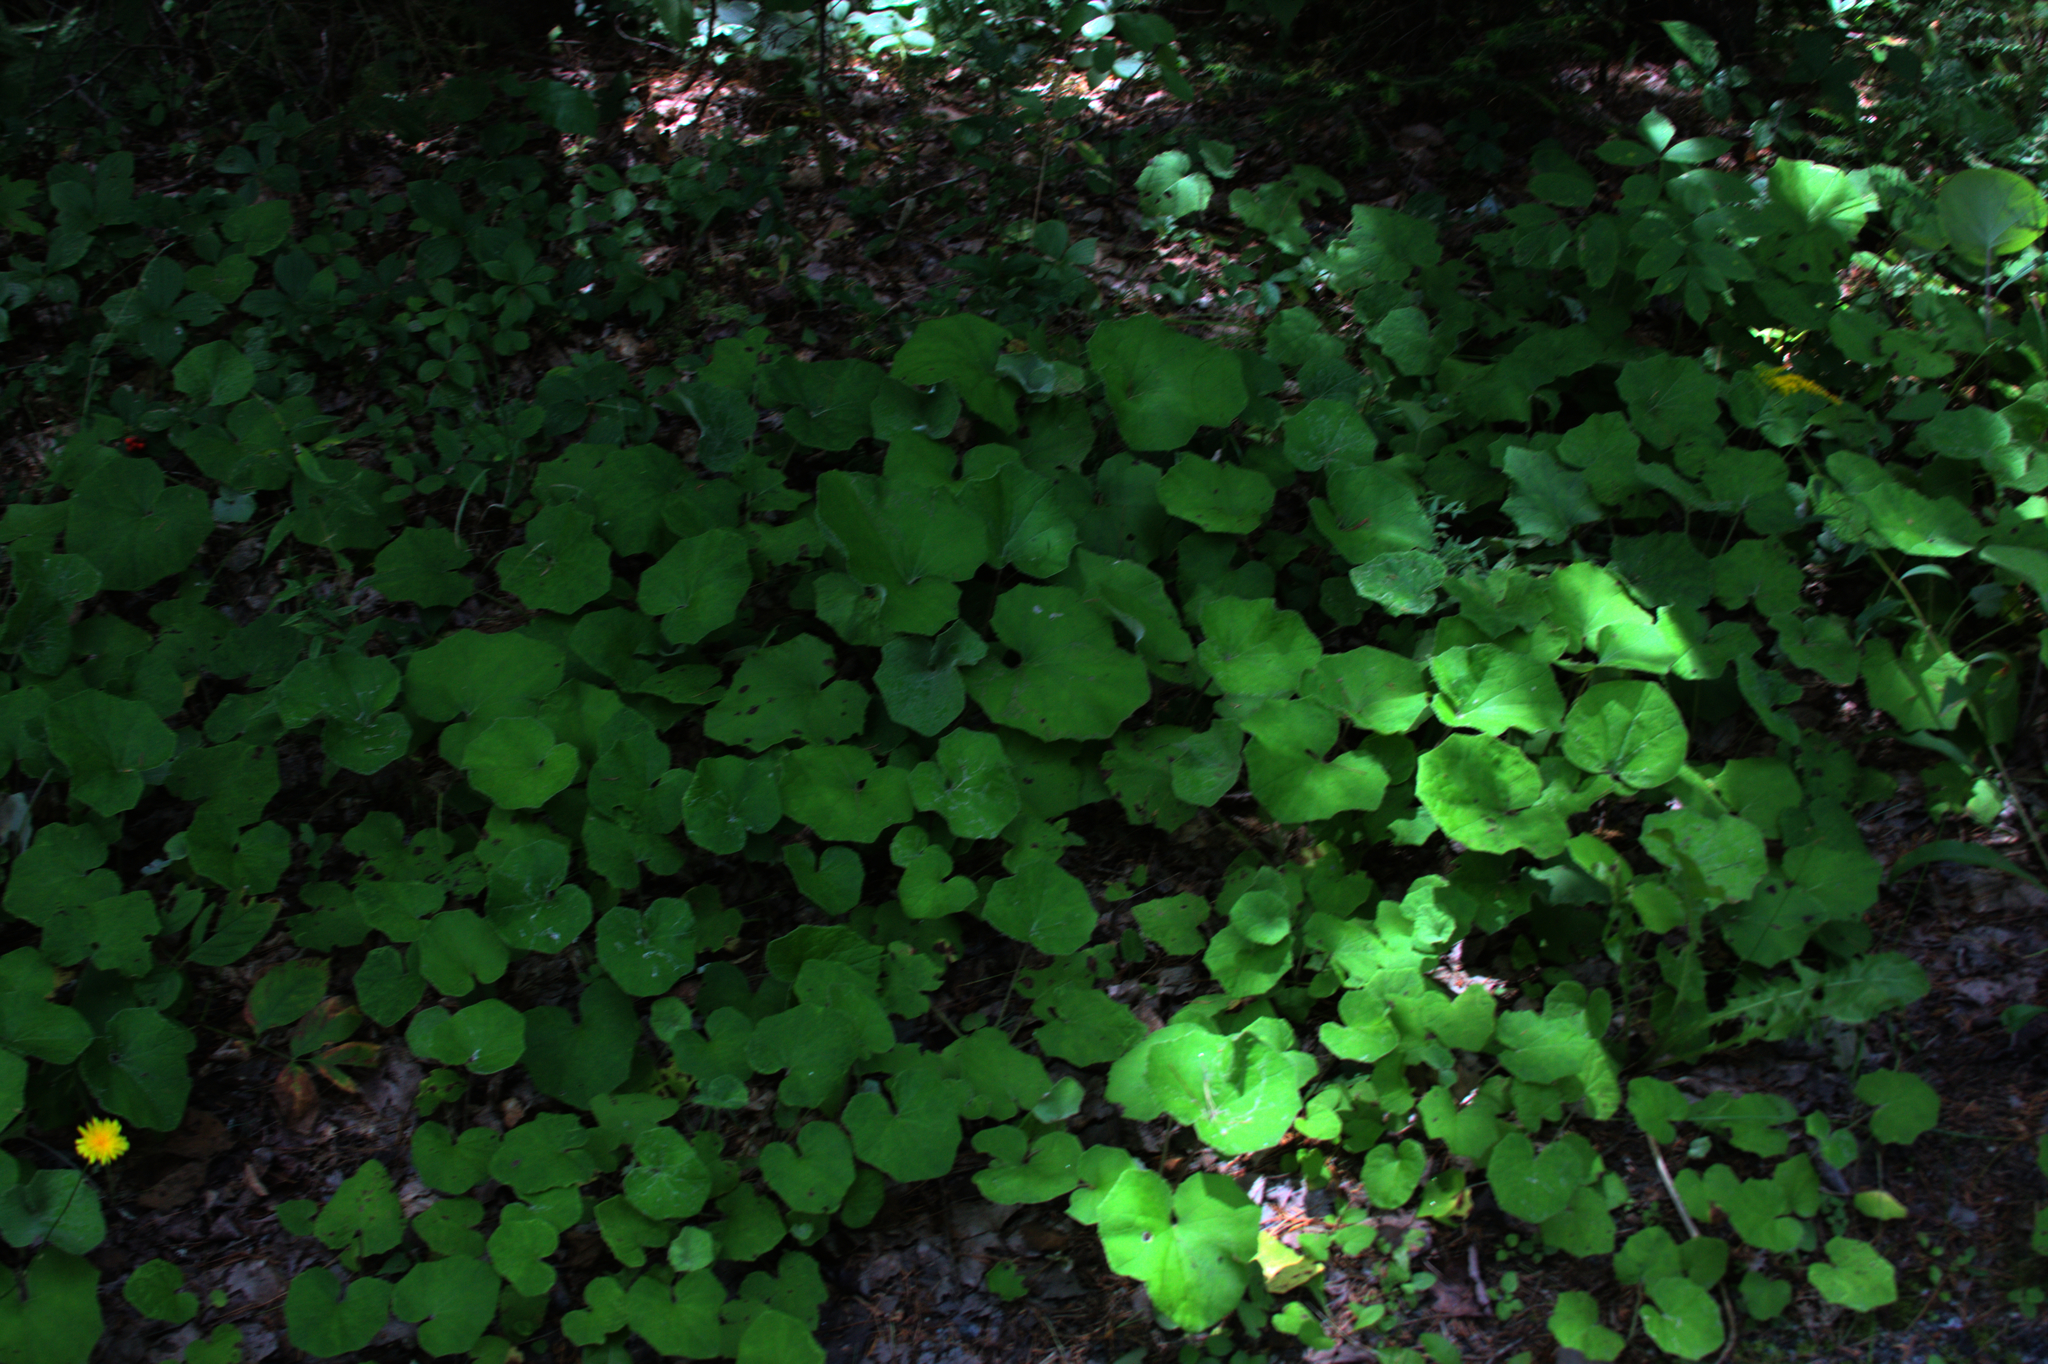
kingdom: Plantae
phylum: Tracheophyta
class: Magnoliopsida
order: Asterales
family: Asteraceae
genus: Tussilago
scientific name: Tussilago farfara
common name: Coltsfoot
